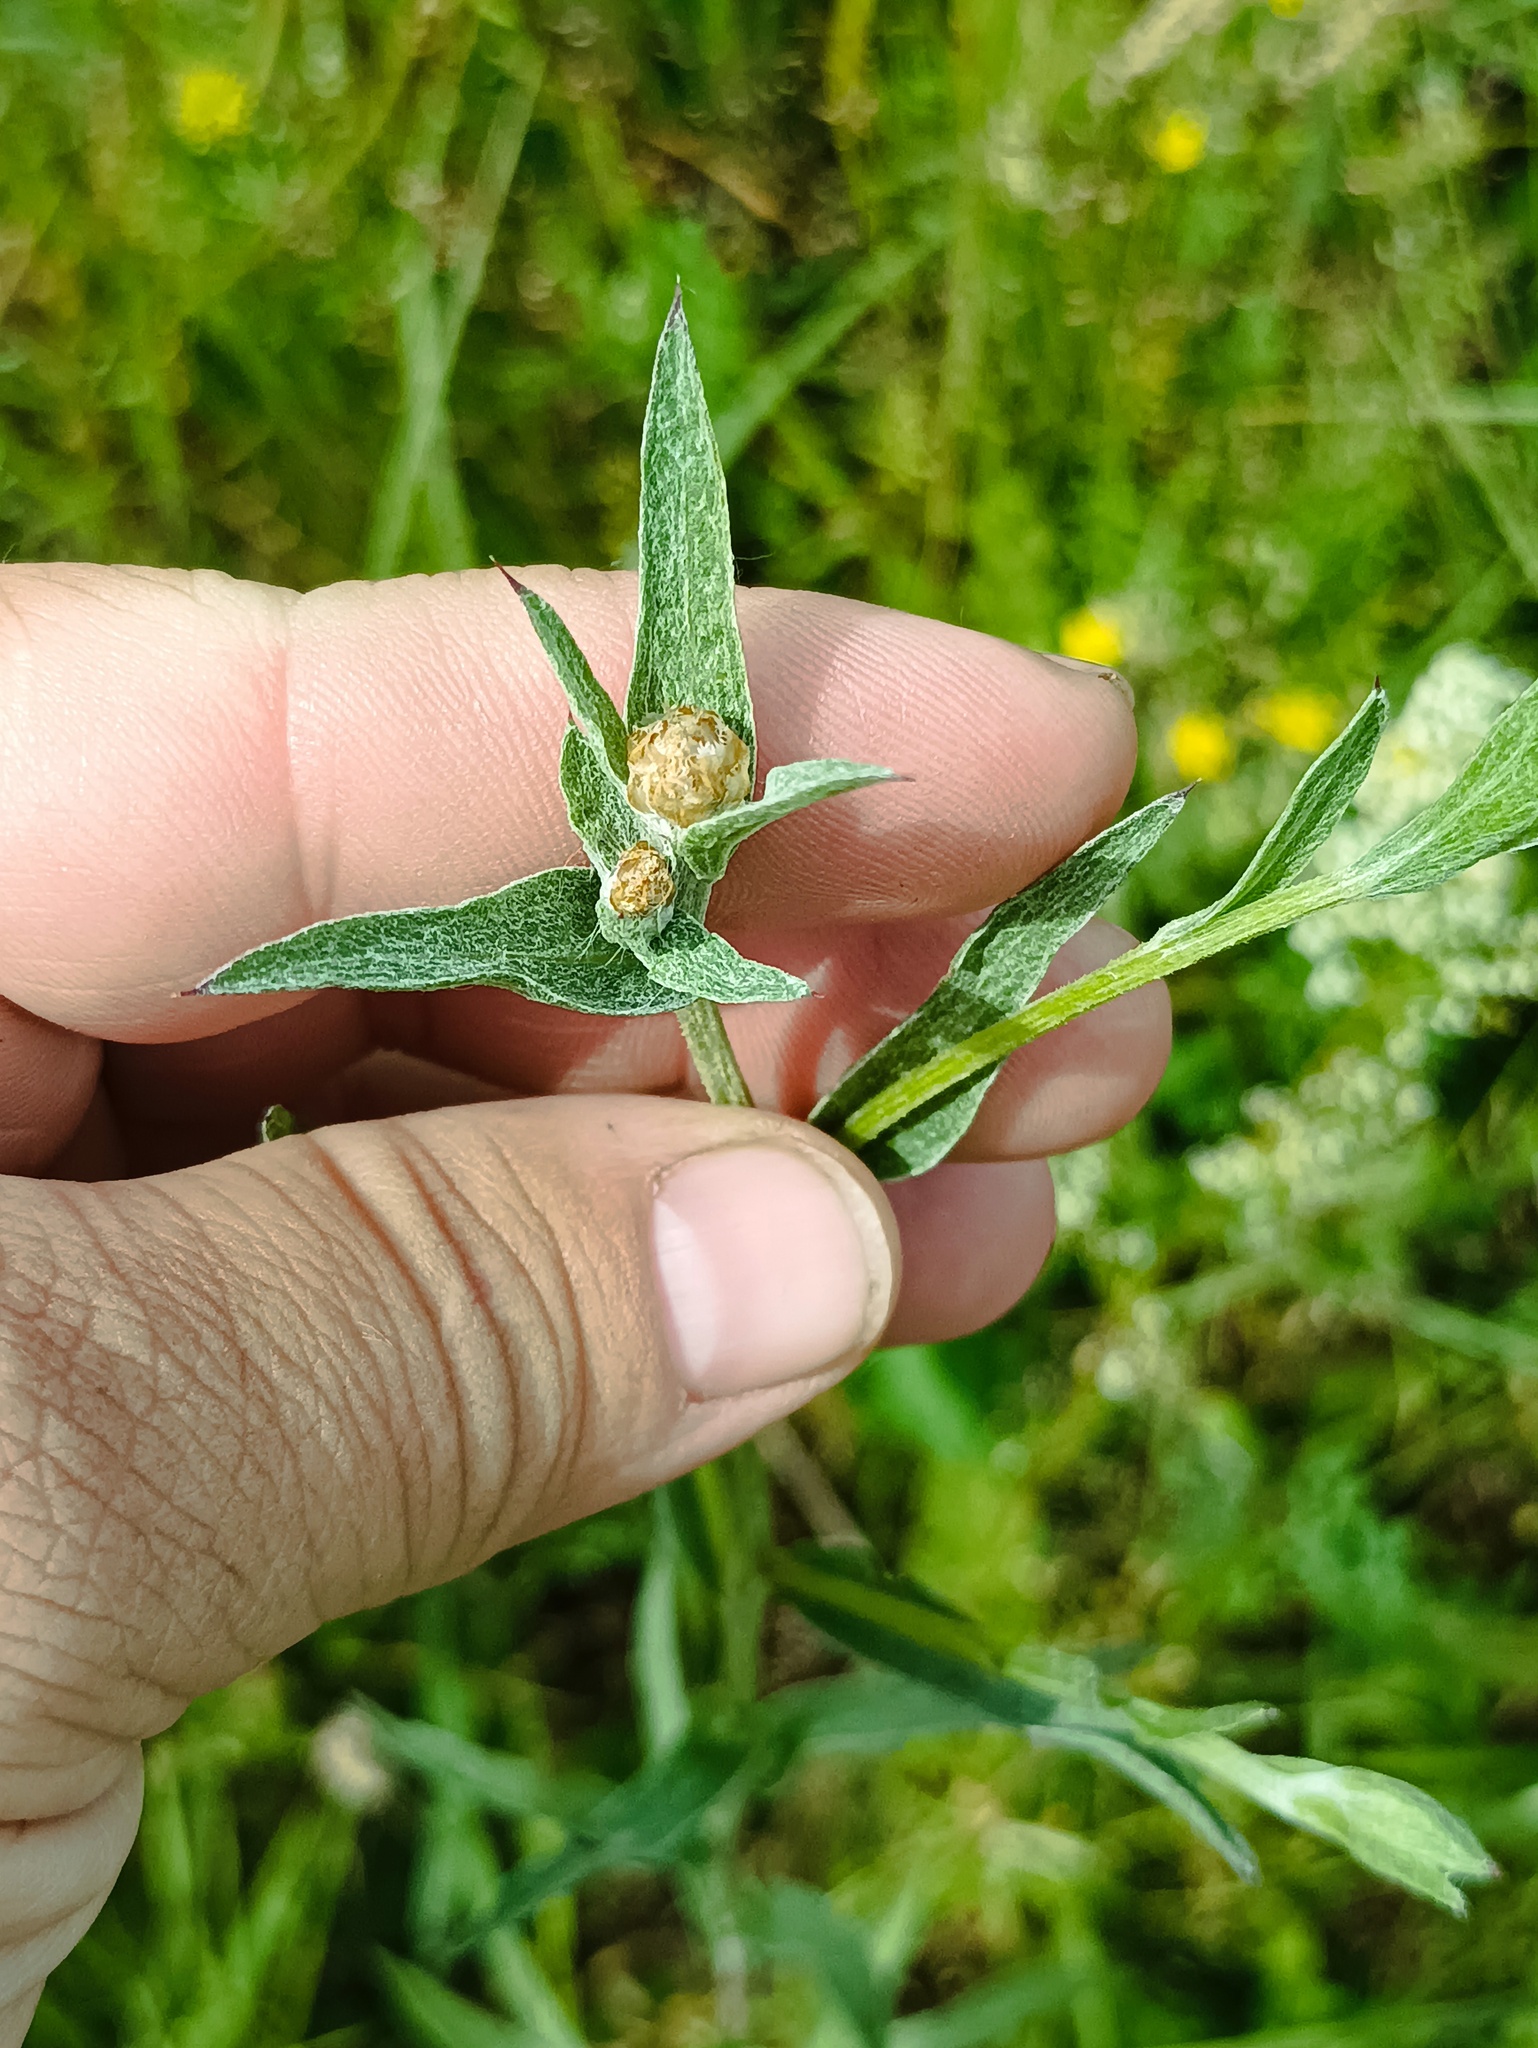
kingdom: Plantae
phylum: Tracheophyta
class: Magnoliopsida
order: Asterales
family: Asteraceae
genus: Centaurea
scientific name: Centaurea jacea
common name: Brown knapweed
